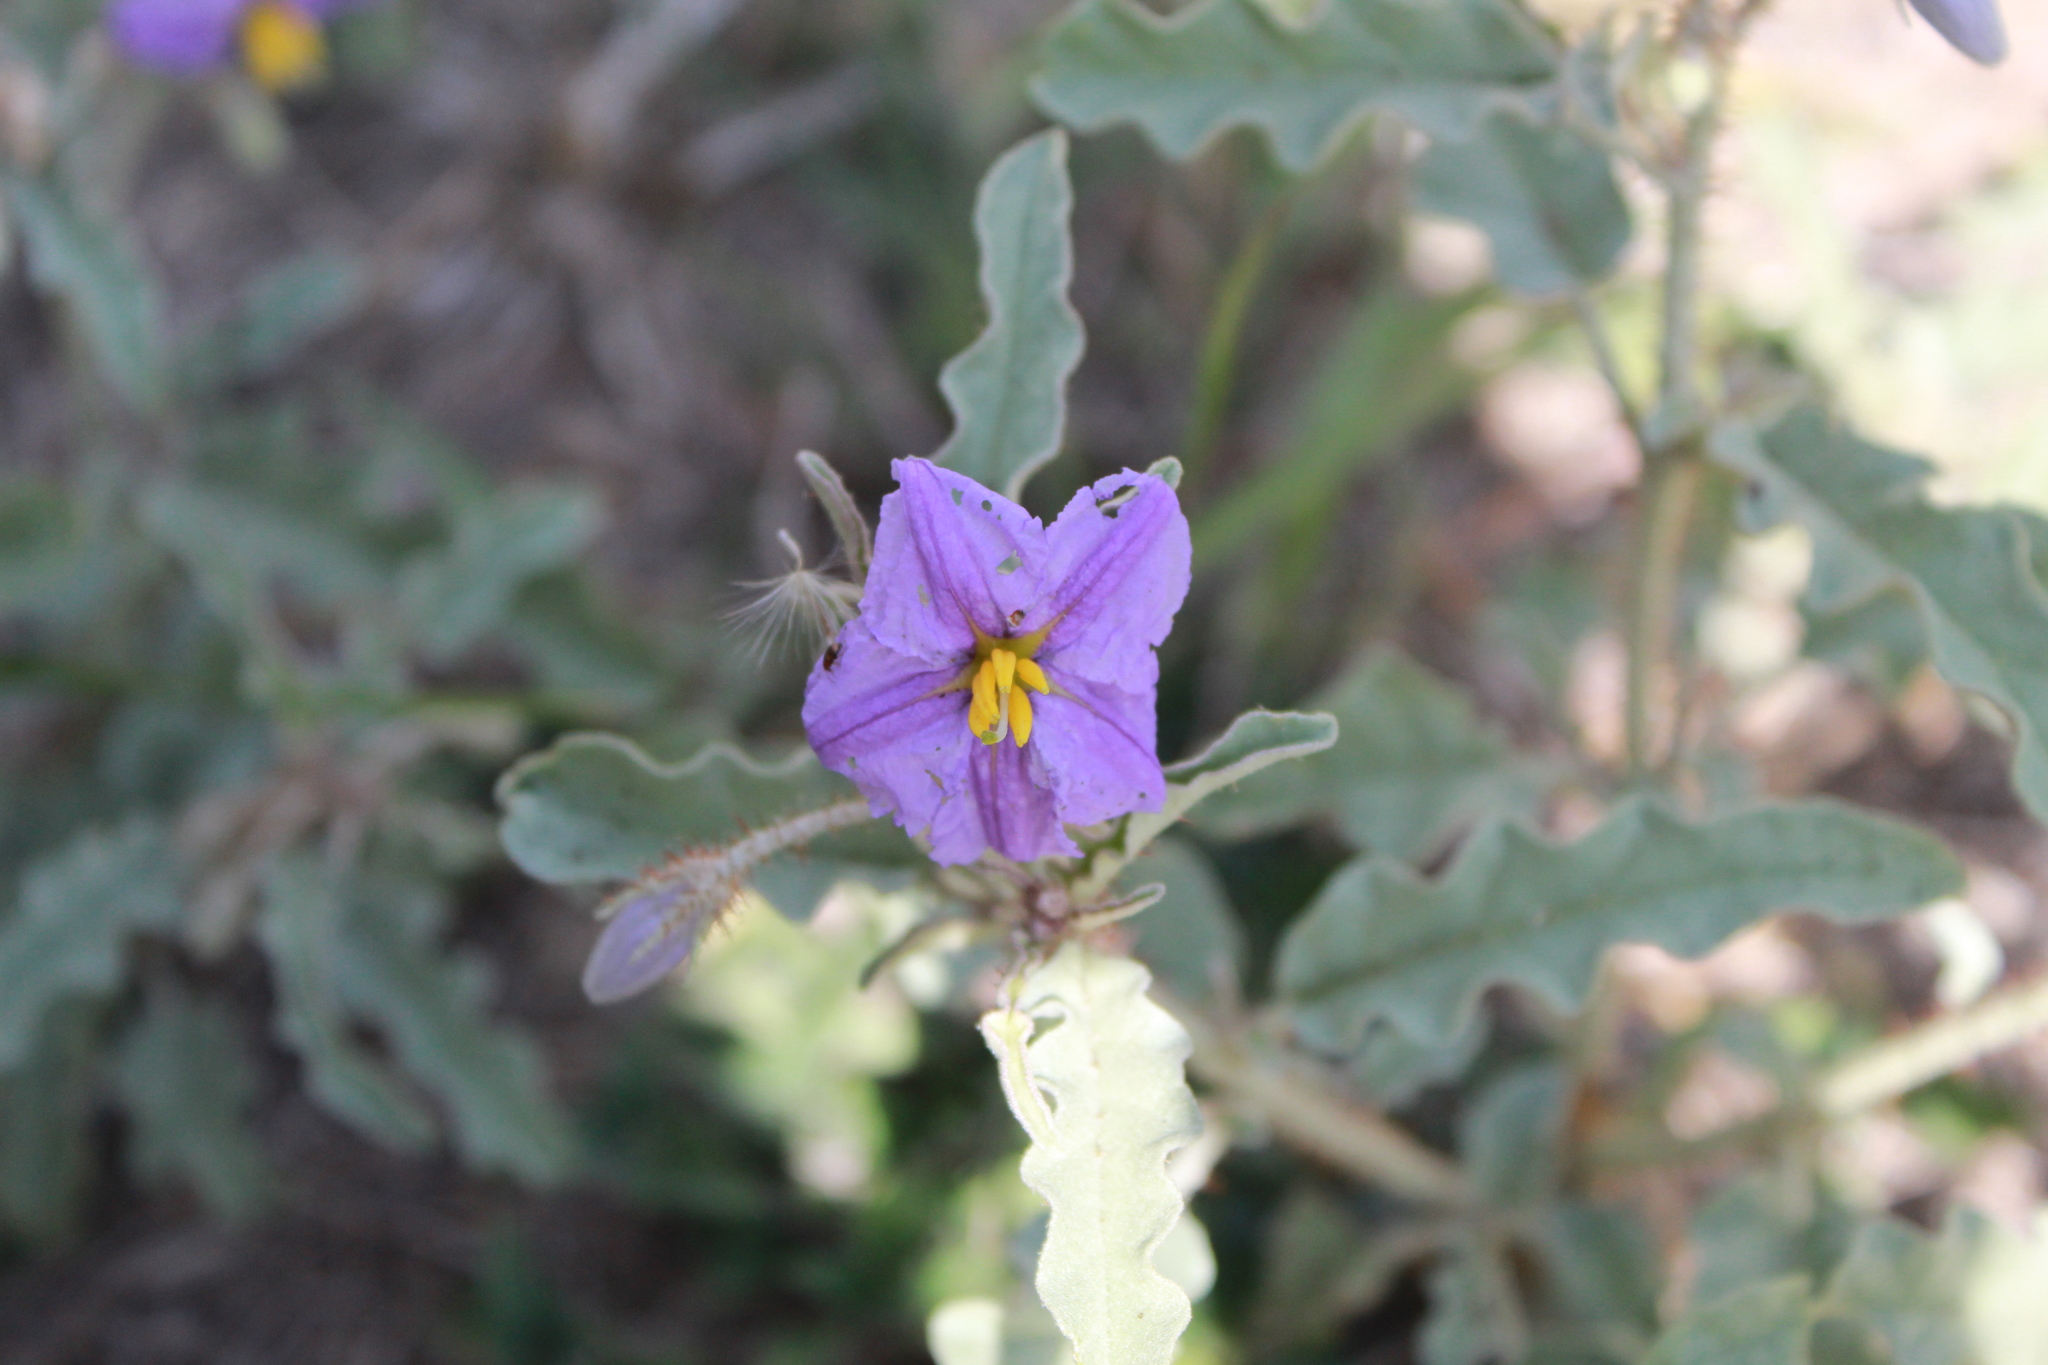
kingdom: Plantae
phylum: Tracheophyta
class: Magnoliopsida
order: Solanales
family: Solanaceae
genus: Solanum
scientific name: Solanum elaeagnifolium
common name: Silverleaf nightshade
